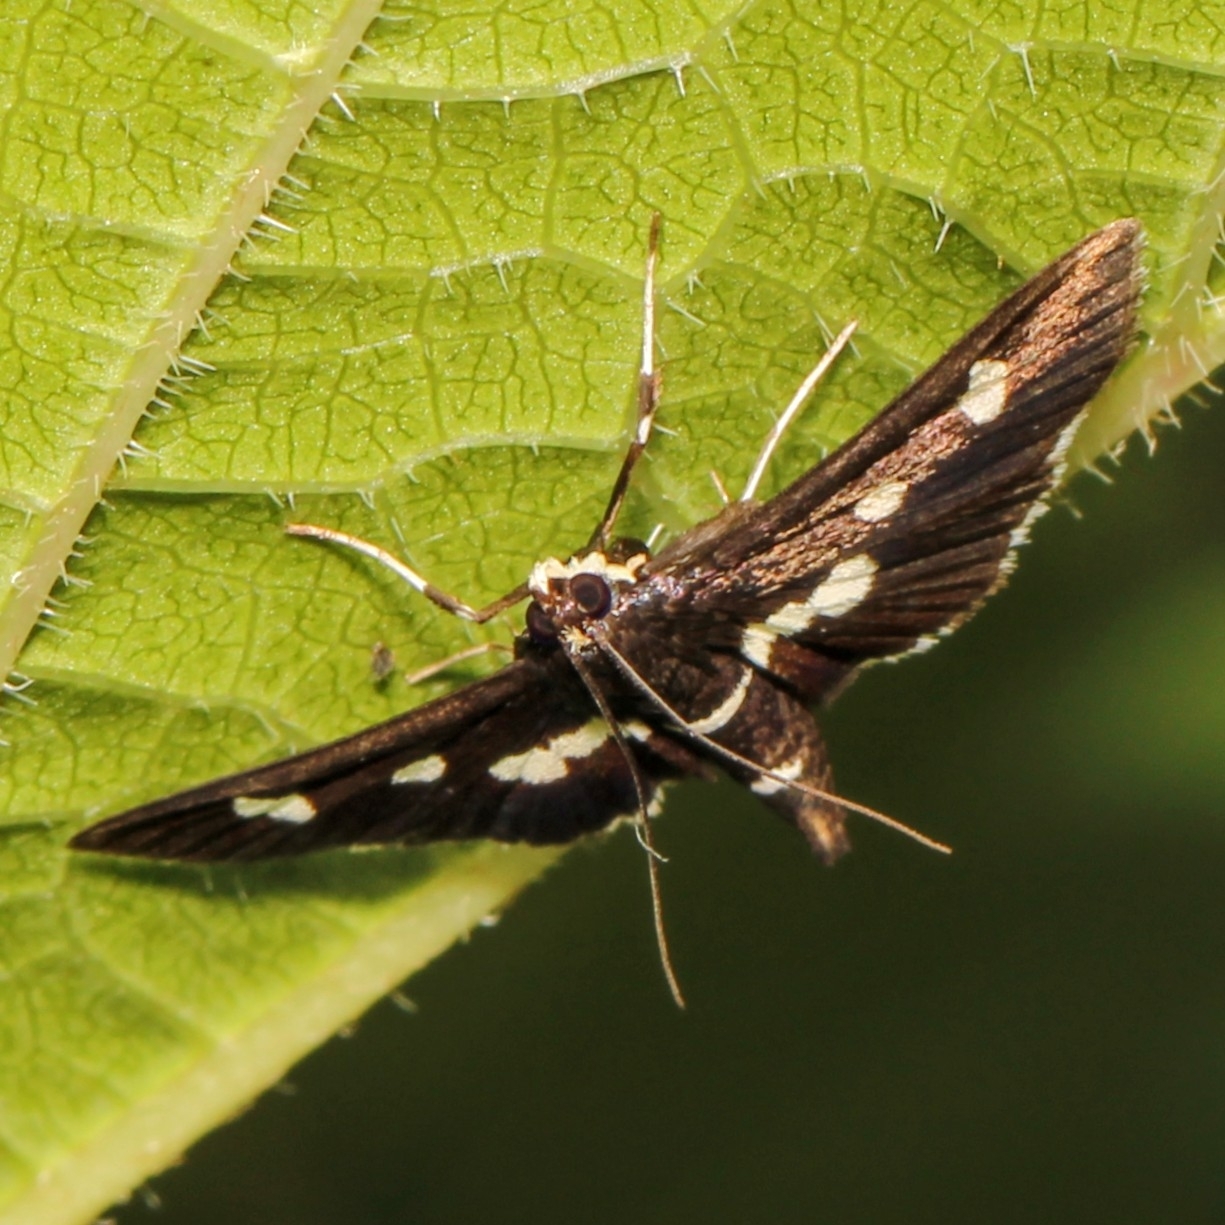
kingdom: Animalia
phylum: Arthropoda
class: Insecta
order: Lepidoptera
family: Crambidae
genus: Desmia
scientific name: Desmia
